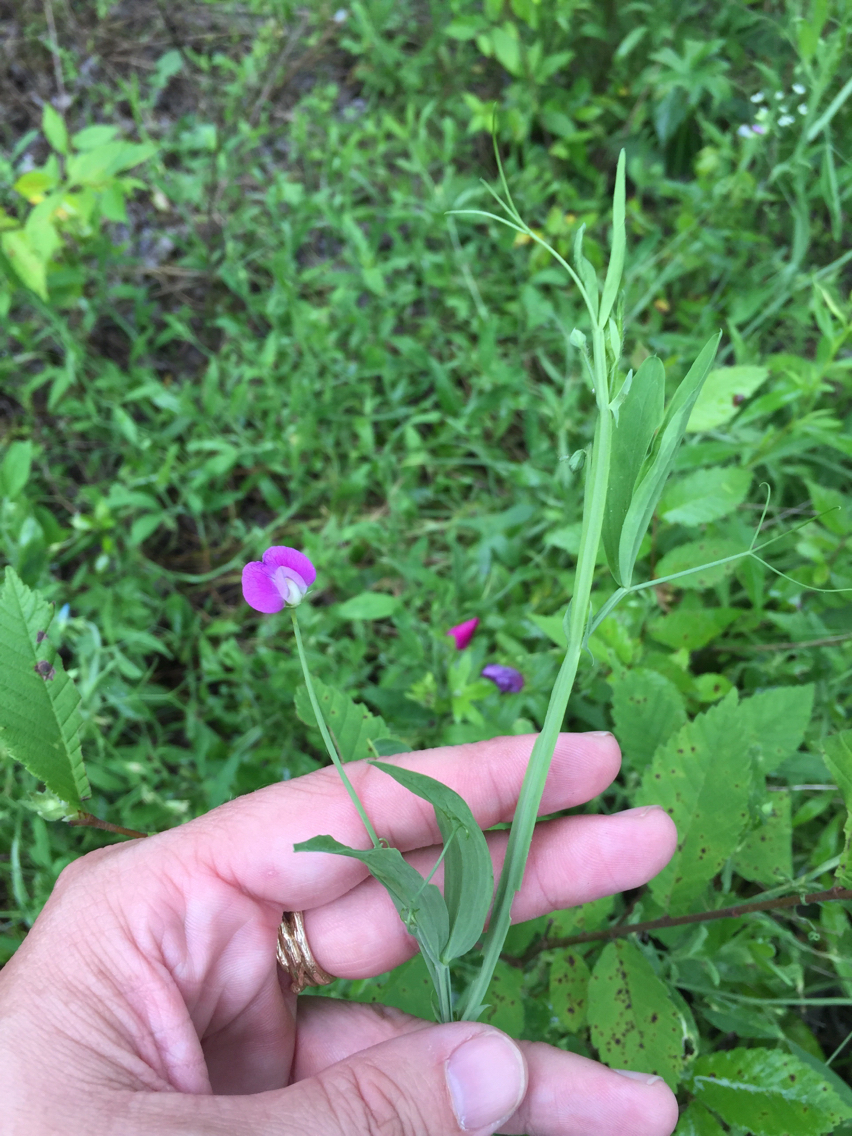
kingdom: Plantae
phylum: Tracheophyta
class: Magnoliopsida
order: Fabales
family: Fabaceae
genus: Lathyrus
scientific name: Lathyrus hirsutus
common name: Hairy vetchling
